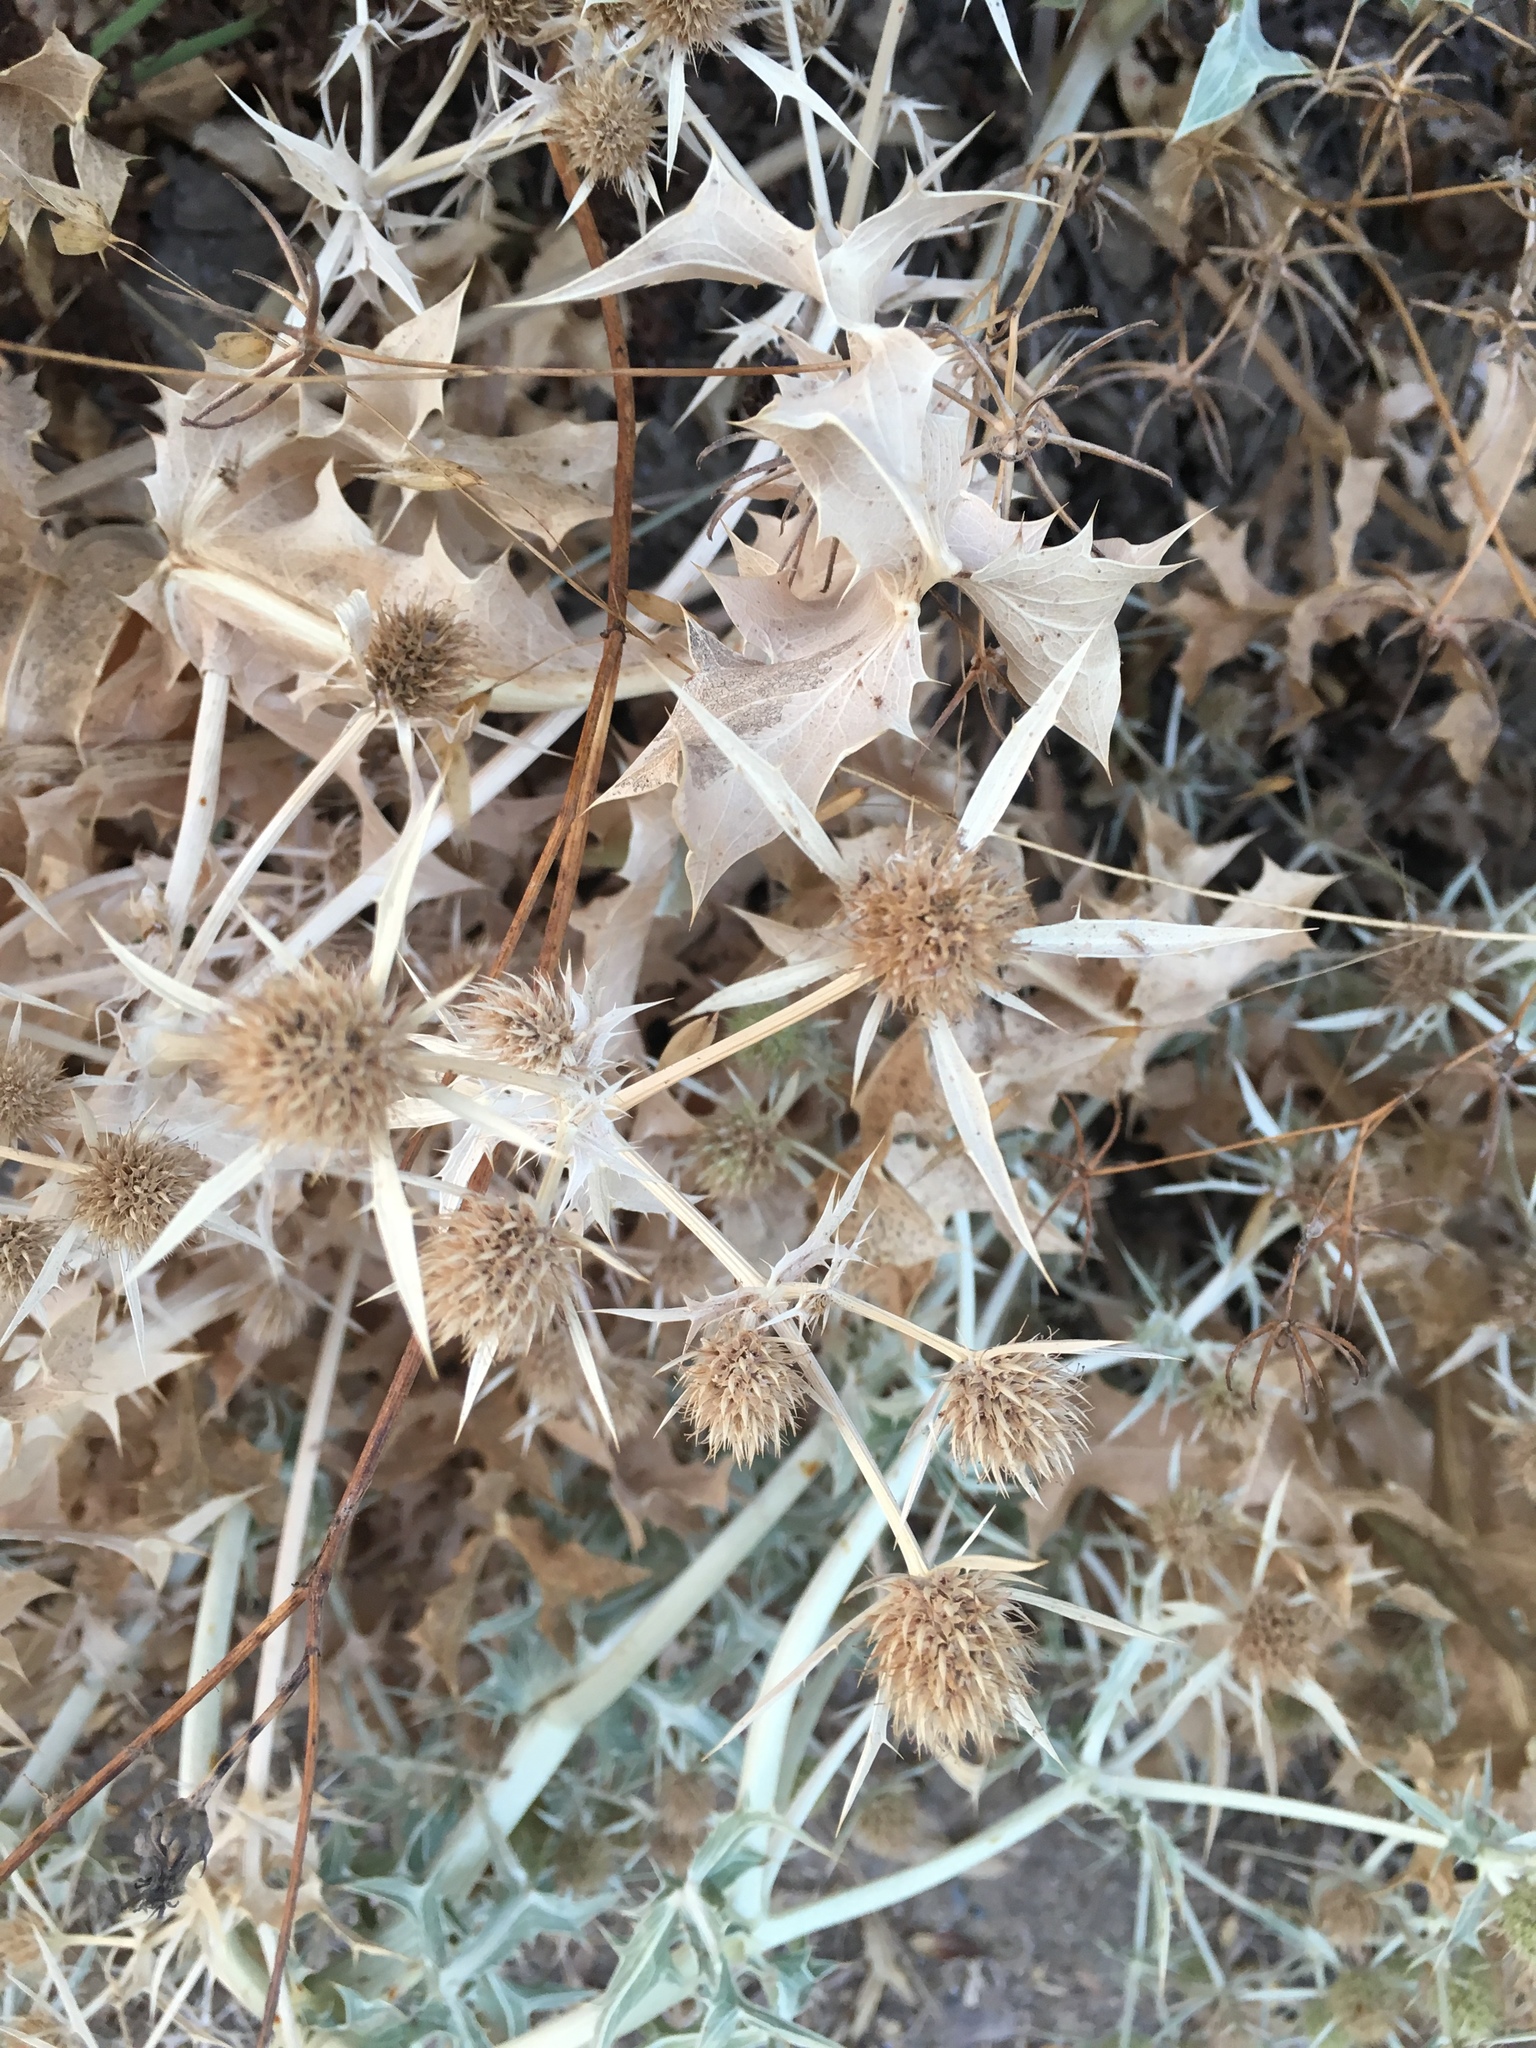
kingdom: Plantae
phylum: Tracheophyta
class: Magnoliopsida
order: Apiales
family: Apiaceae
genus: Eryngium
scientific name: Eryngium campestre
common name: Field eryngo
